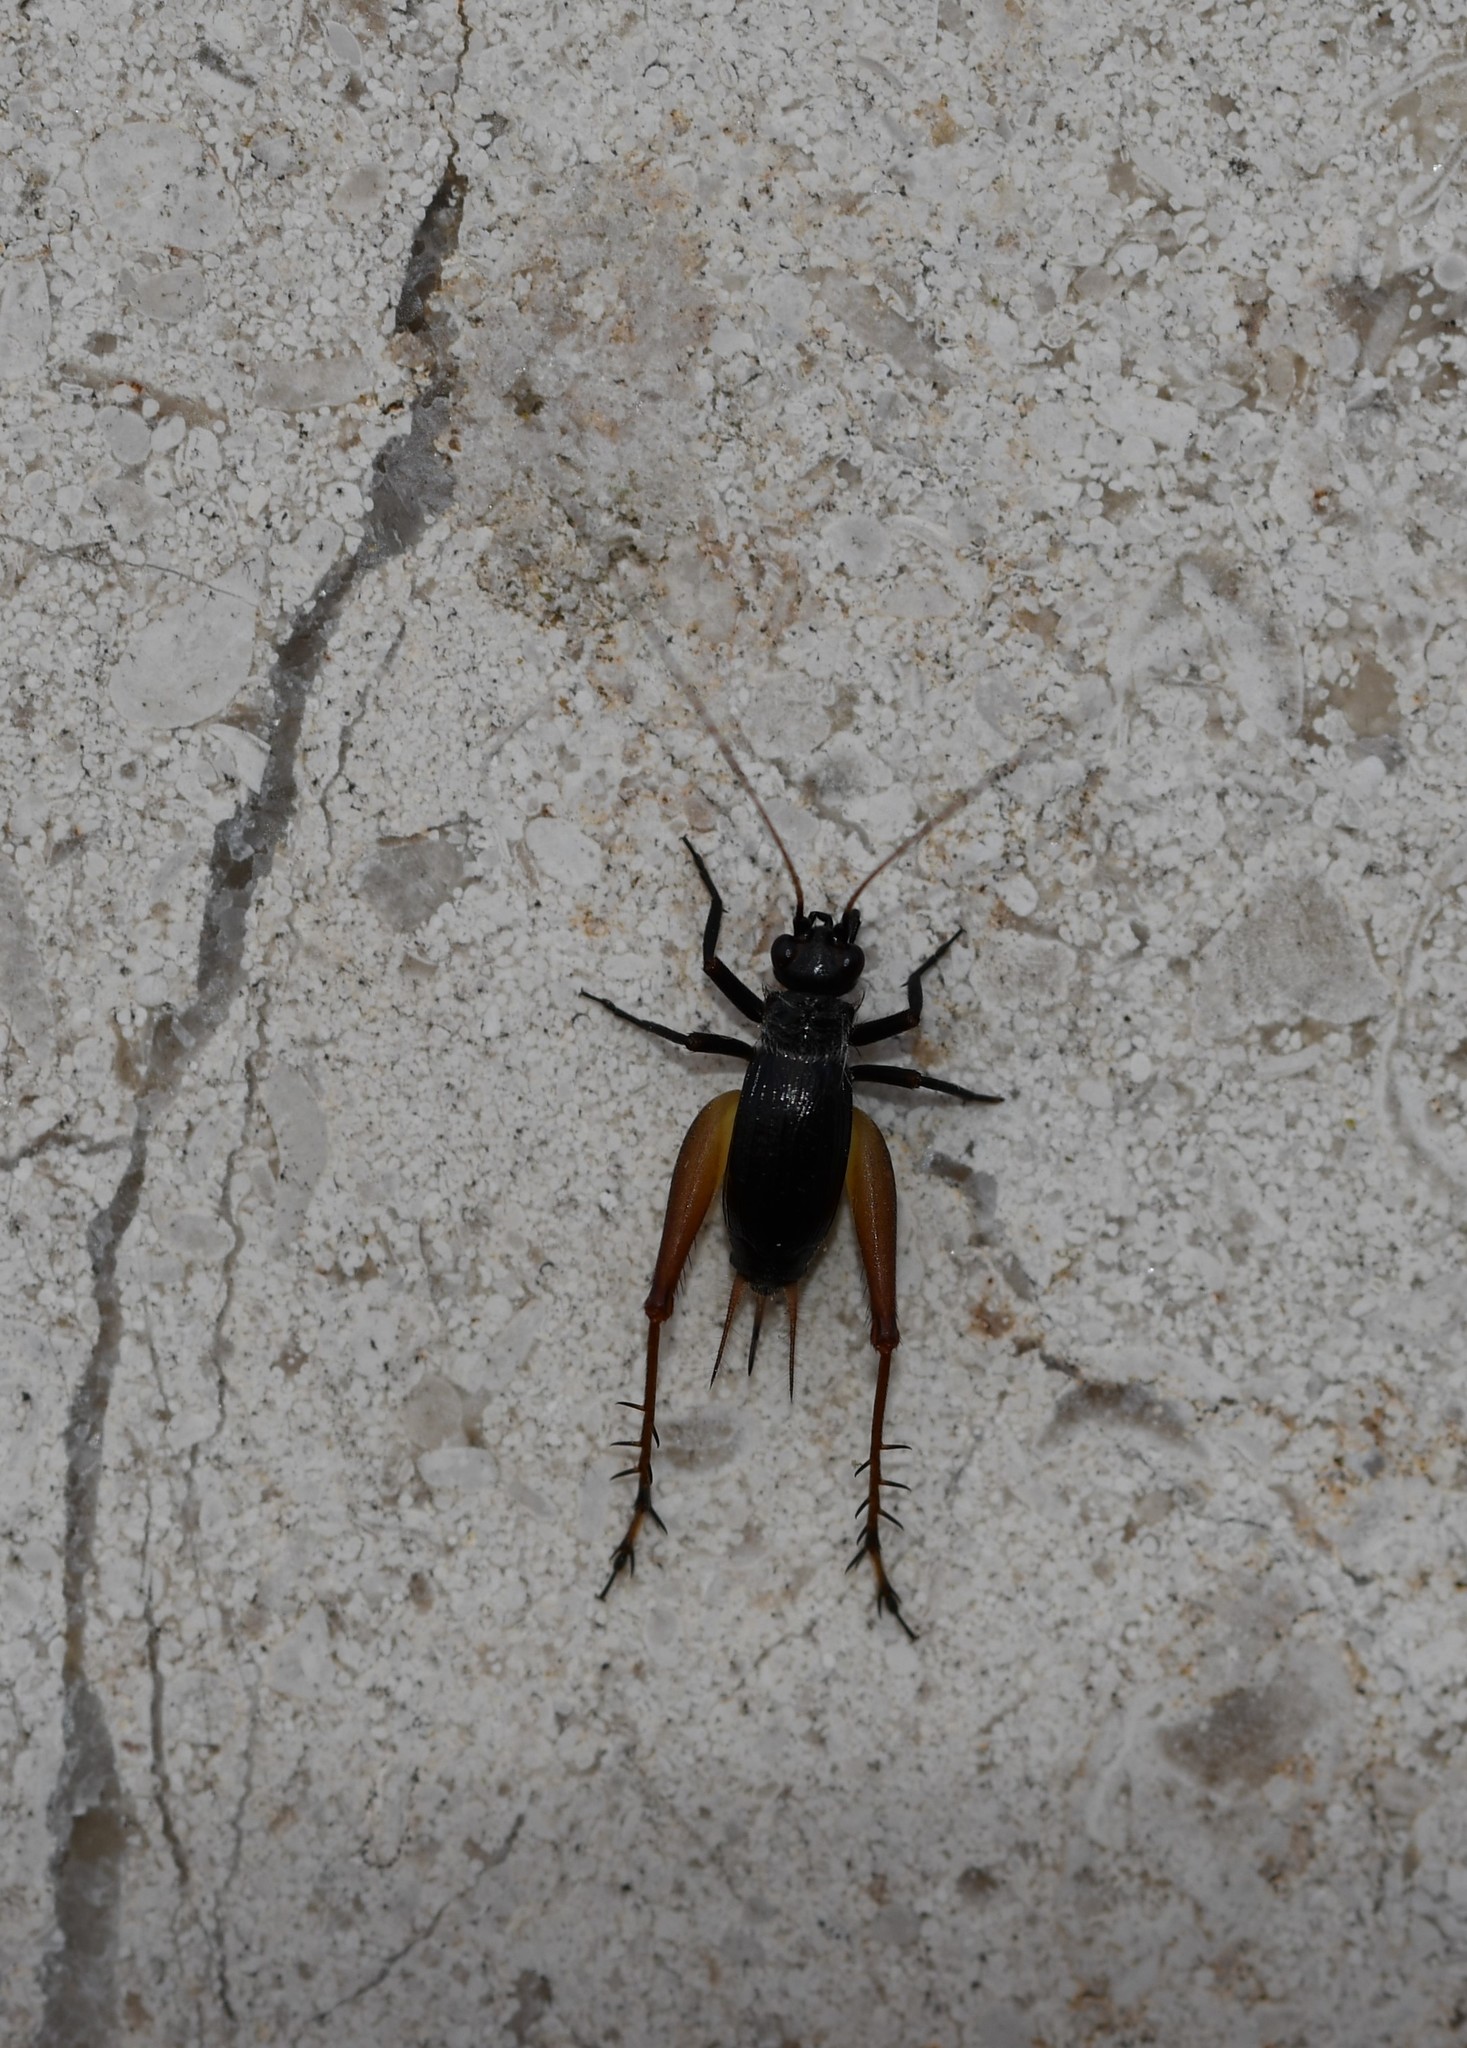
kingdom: Animalia
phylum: Arthropoda
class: Insecta
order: Orthoptera
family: Trigonidiidae
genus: Trigonidium
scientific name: Trigonidium cicindeloides
